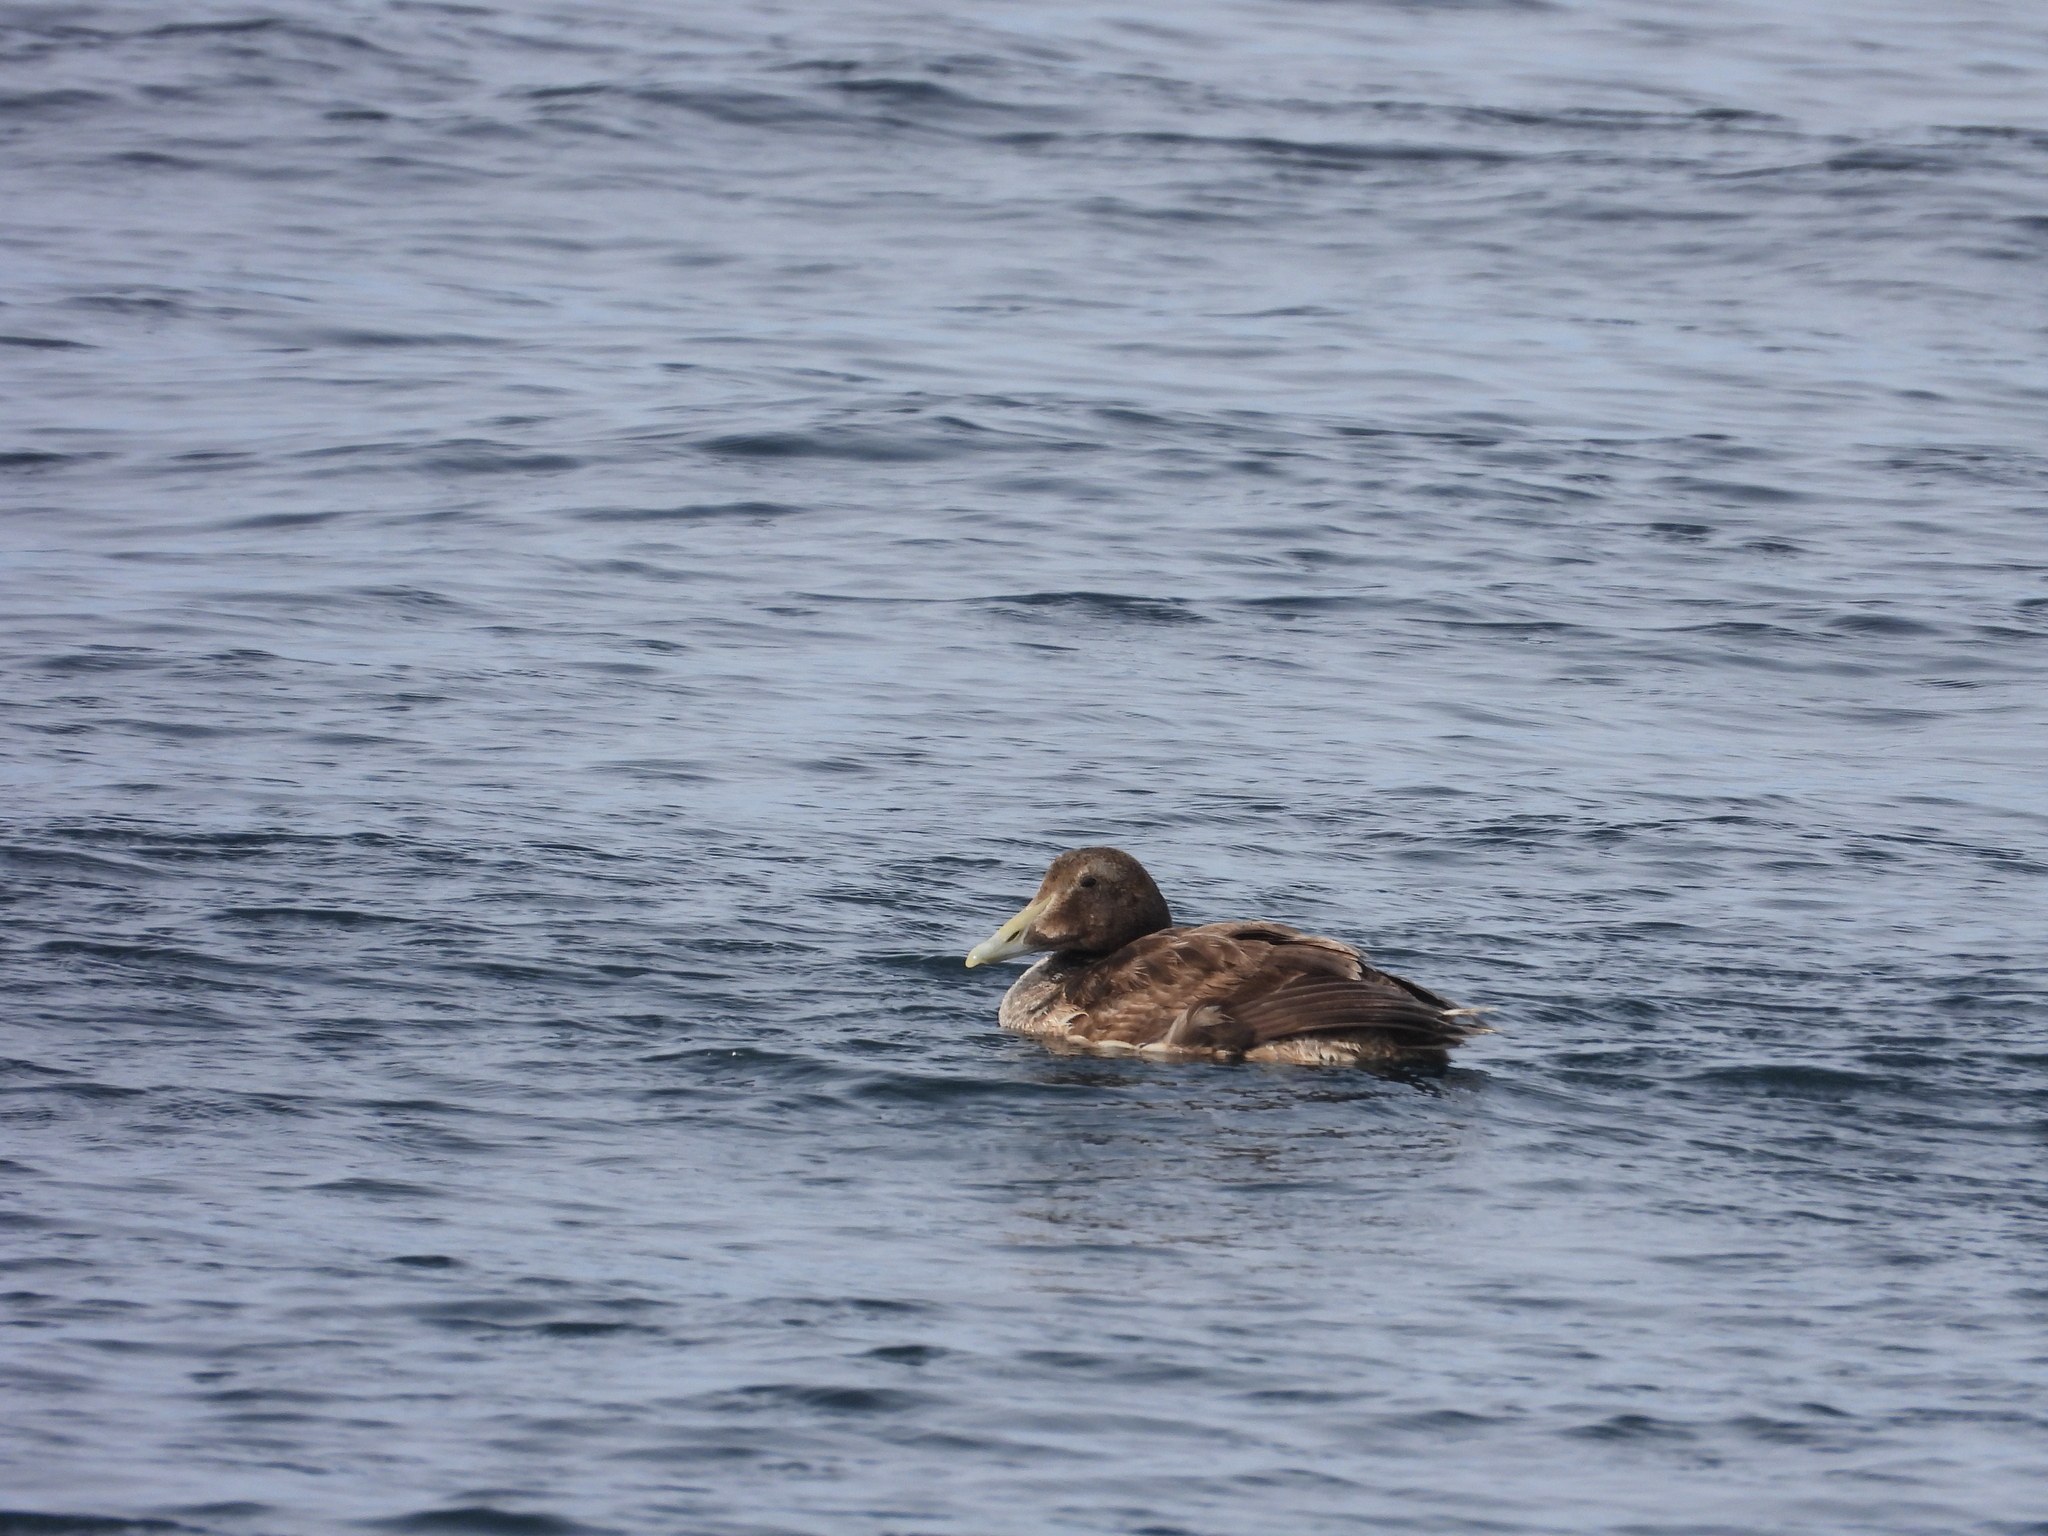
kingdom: Animalia
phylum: Chordata
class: Aves
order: Anseriformes
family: Anatidae
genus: Somateria
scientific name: Somateria mollissima
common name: Common eider
